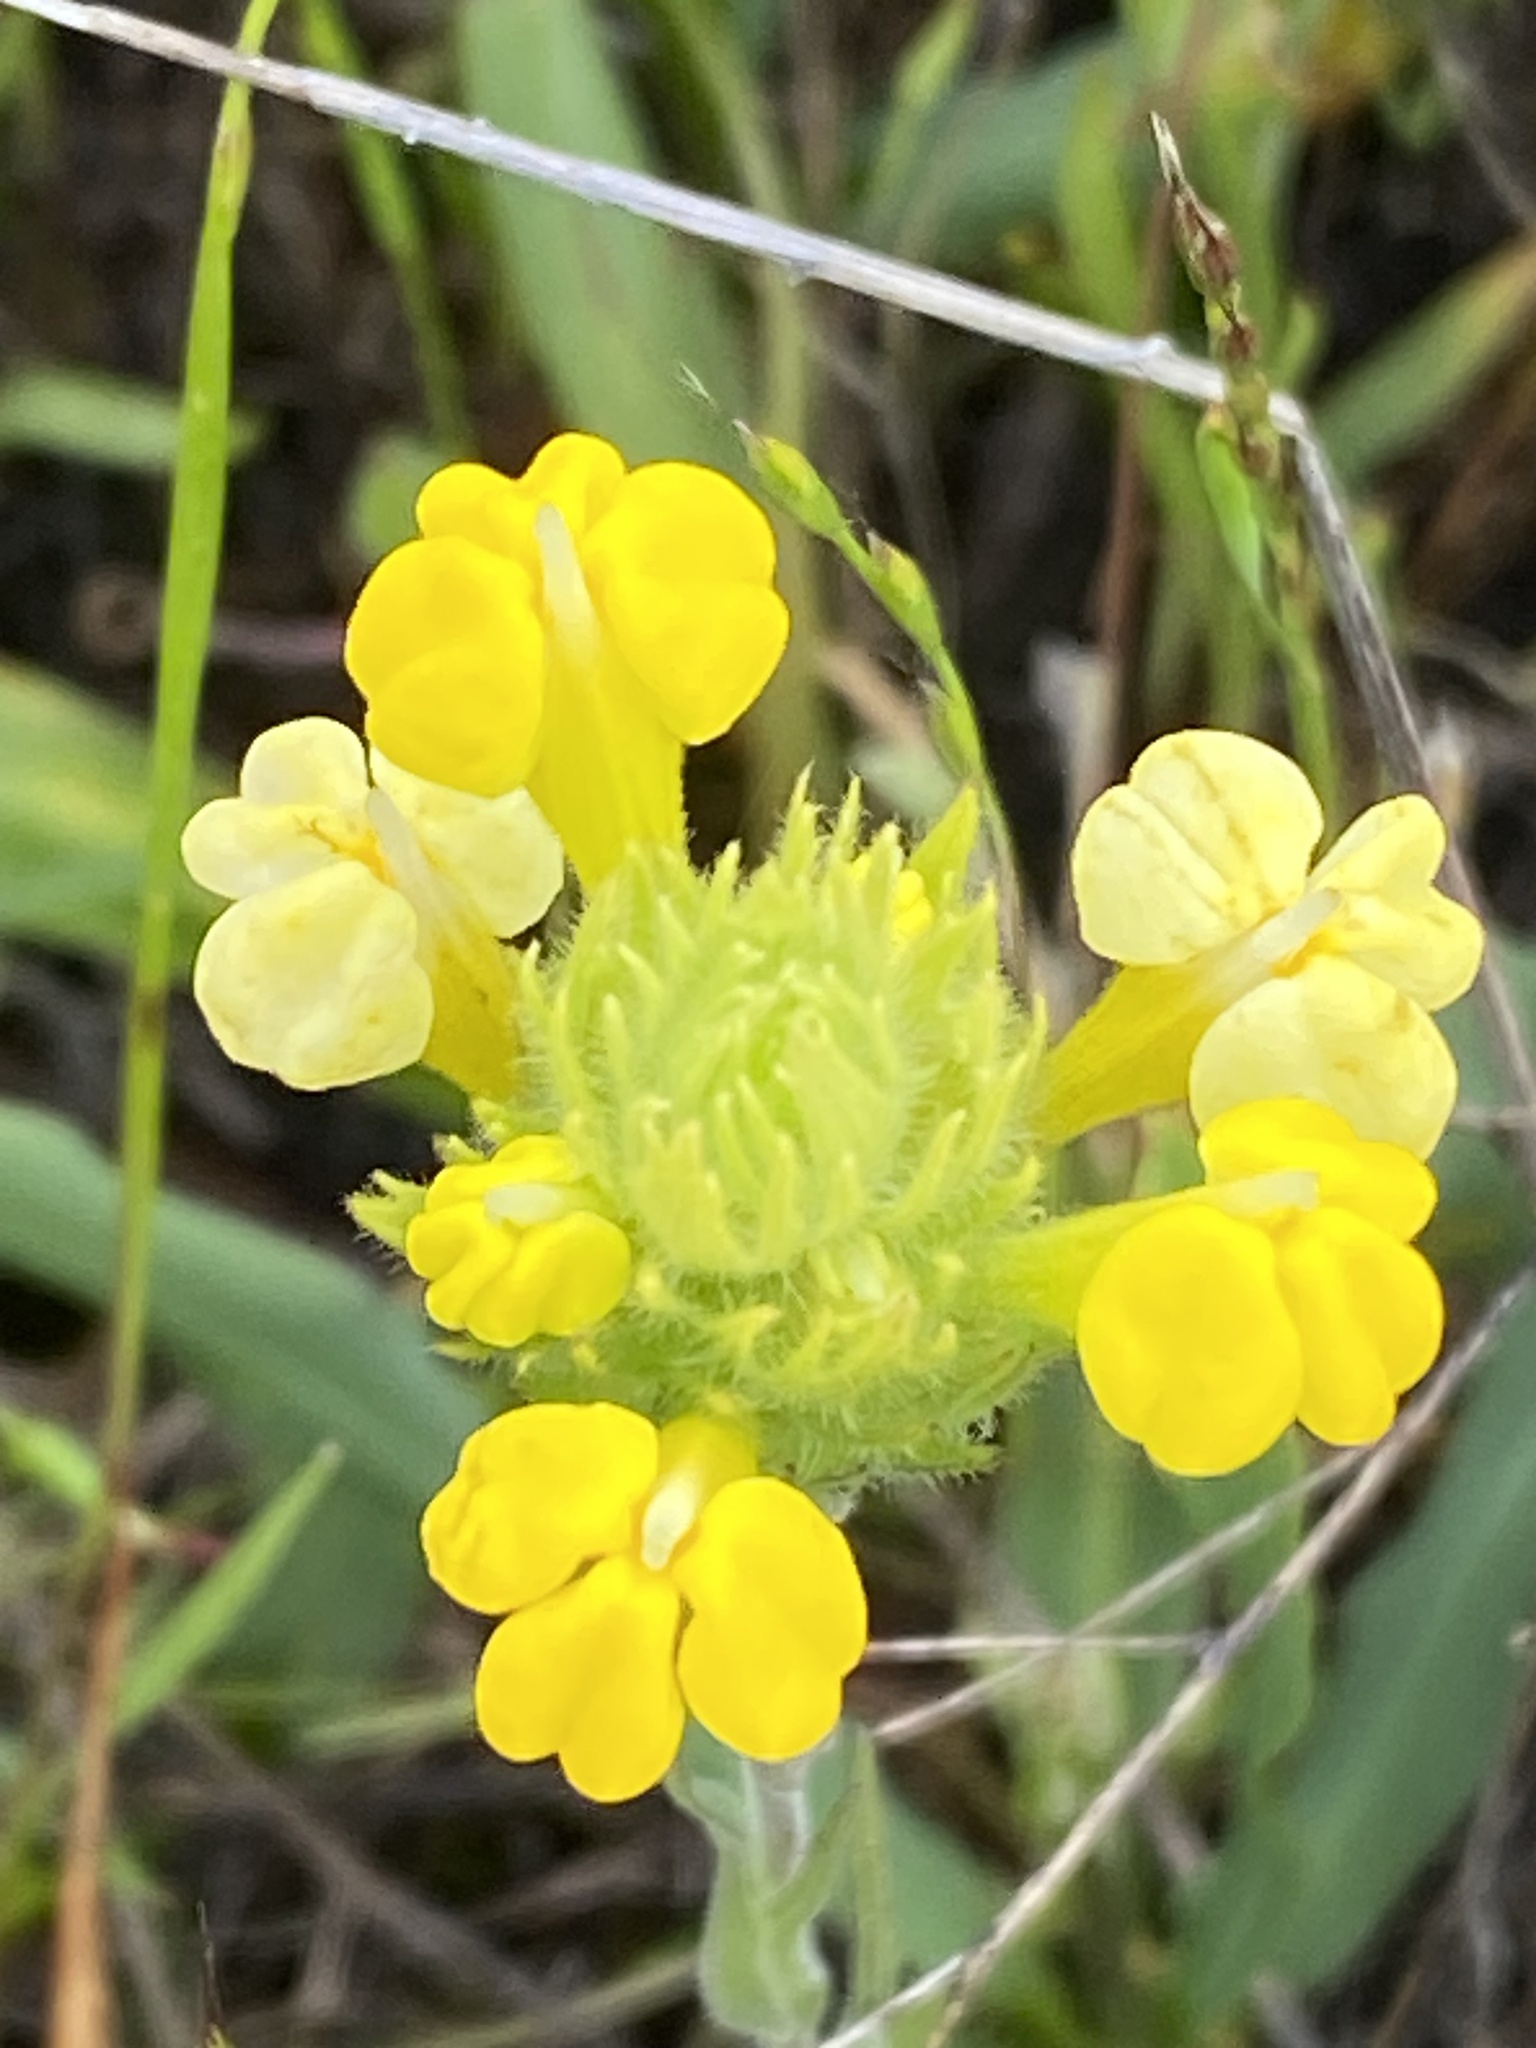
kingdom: Plantae
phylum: Tracheophyta
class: Magnoliopsida
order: Lamiales
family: Orobanchaceae
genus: Castilleja
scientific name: Castilleja rubicundula
